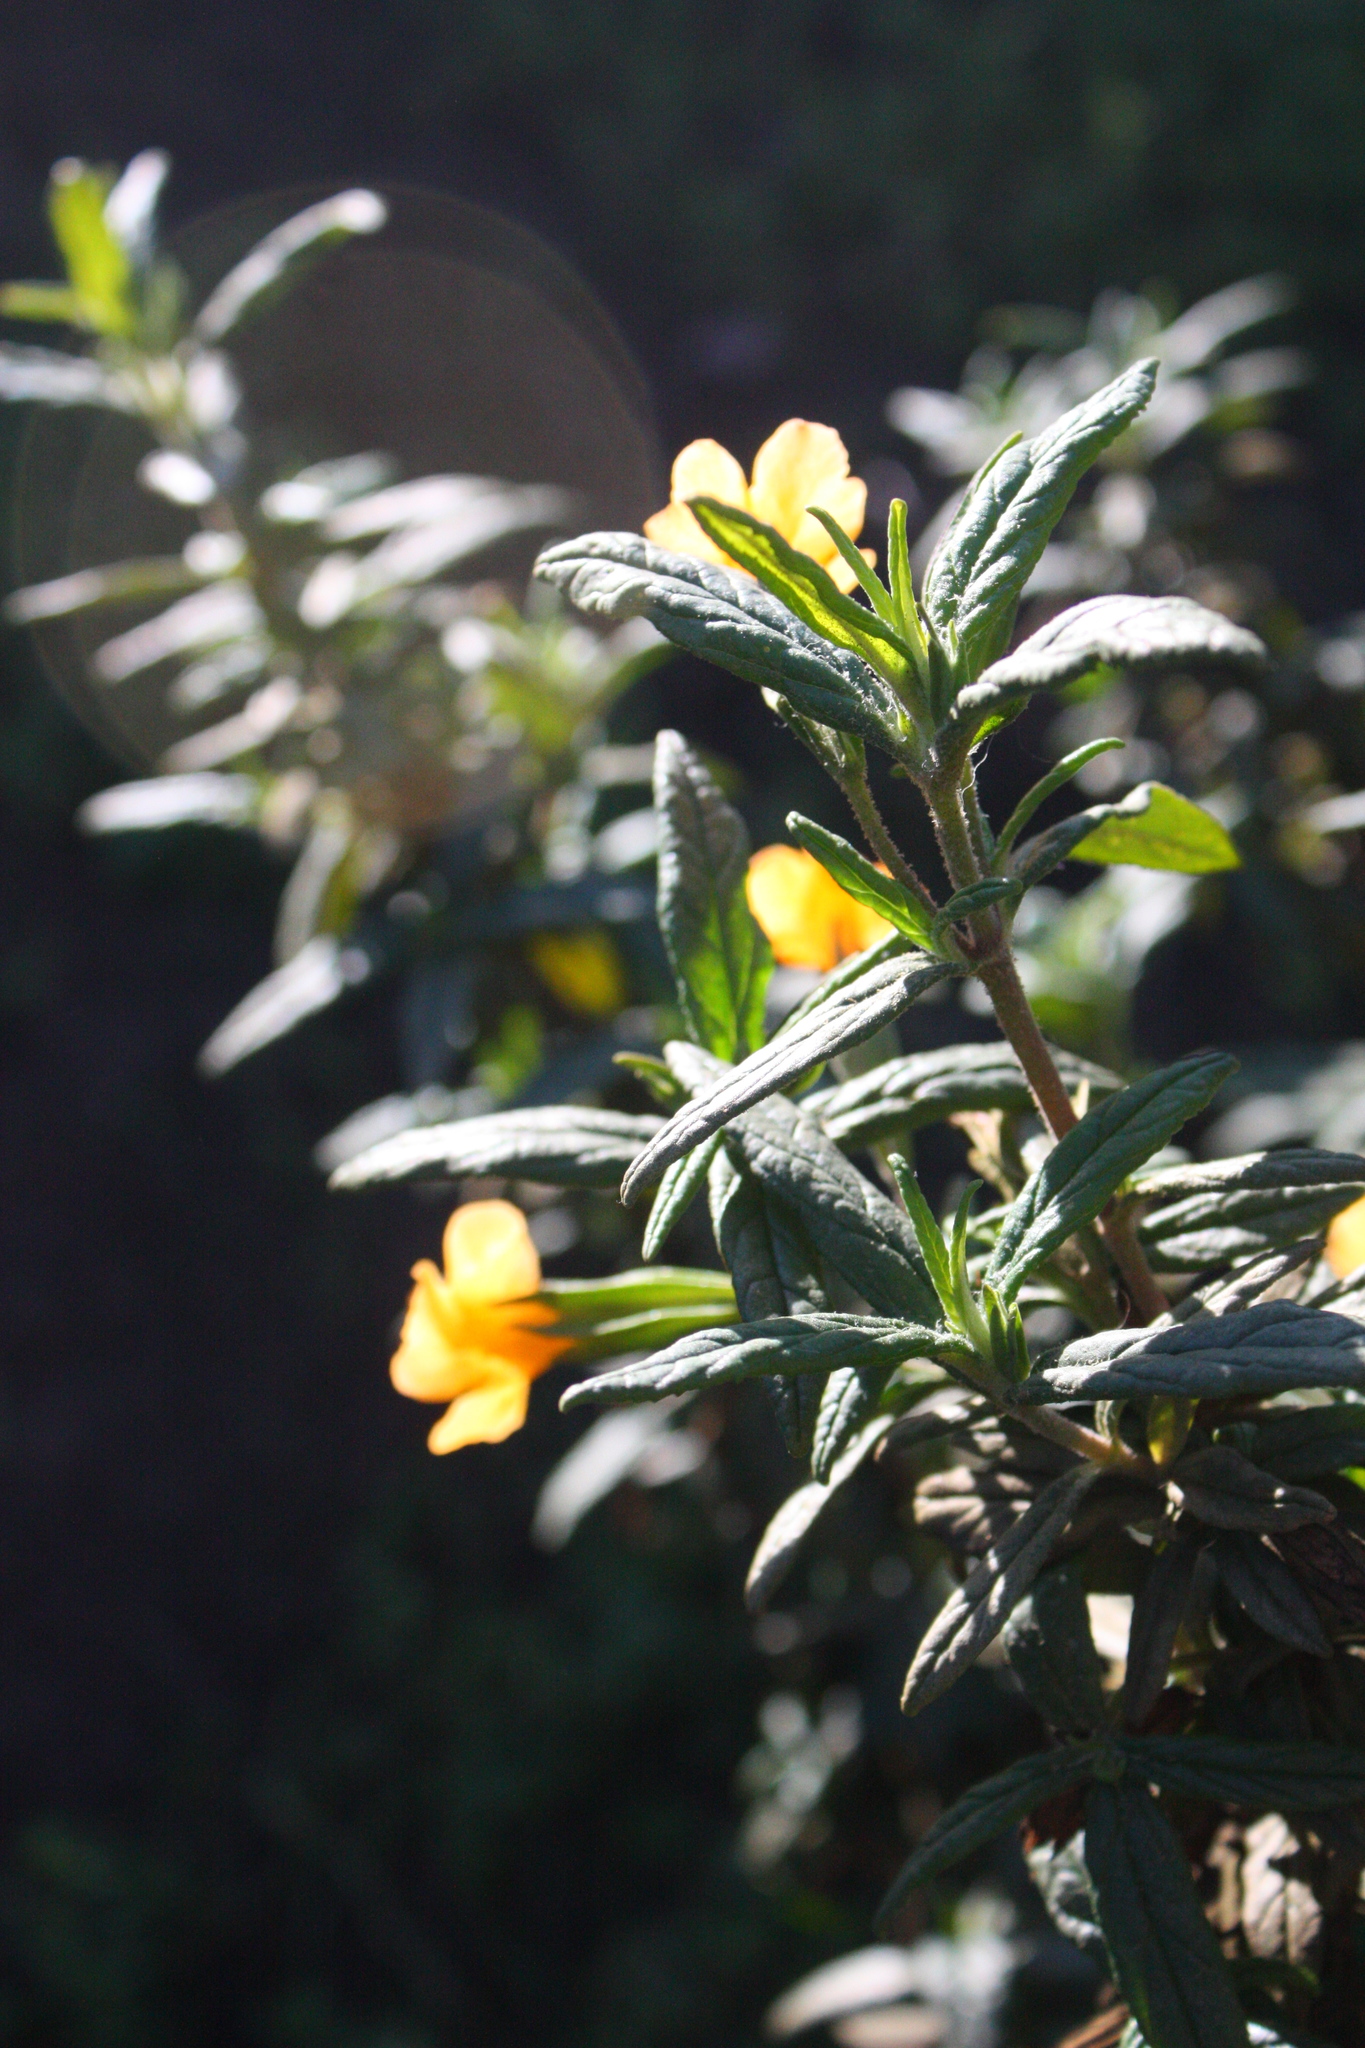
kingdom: Plantae
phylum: Tracheophyta
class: Magnoliopsida
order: Lamiales
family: Phrymaceae
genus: Diplacus
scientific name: Diplacus aurantiacus
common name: Bush monkey-flower
